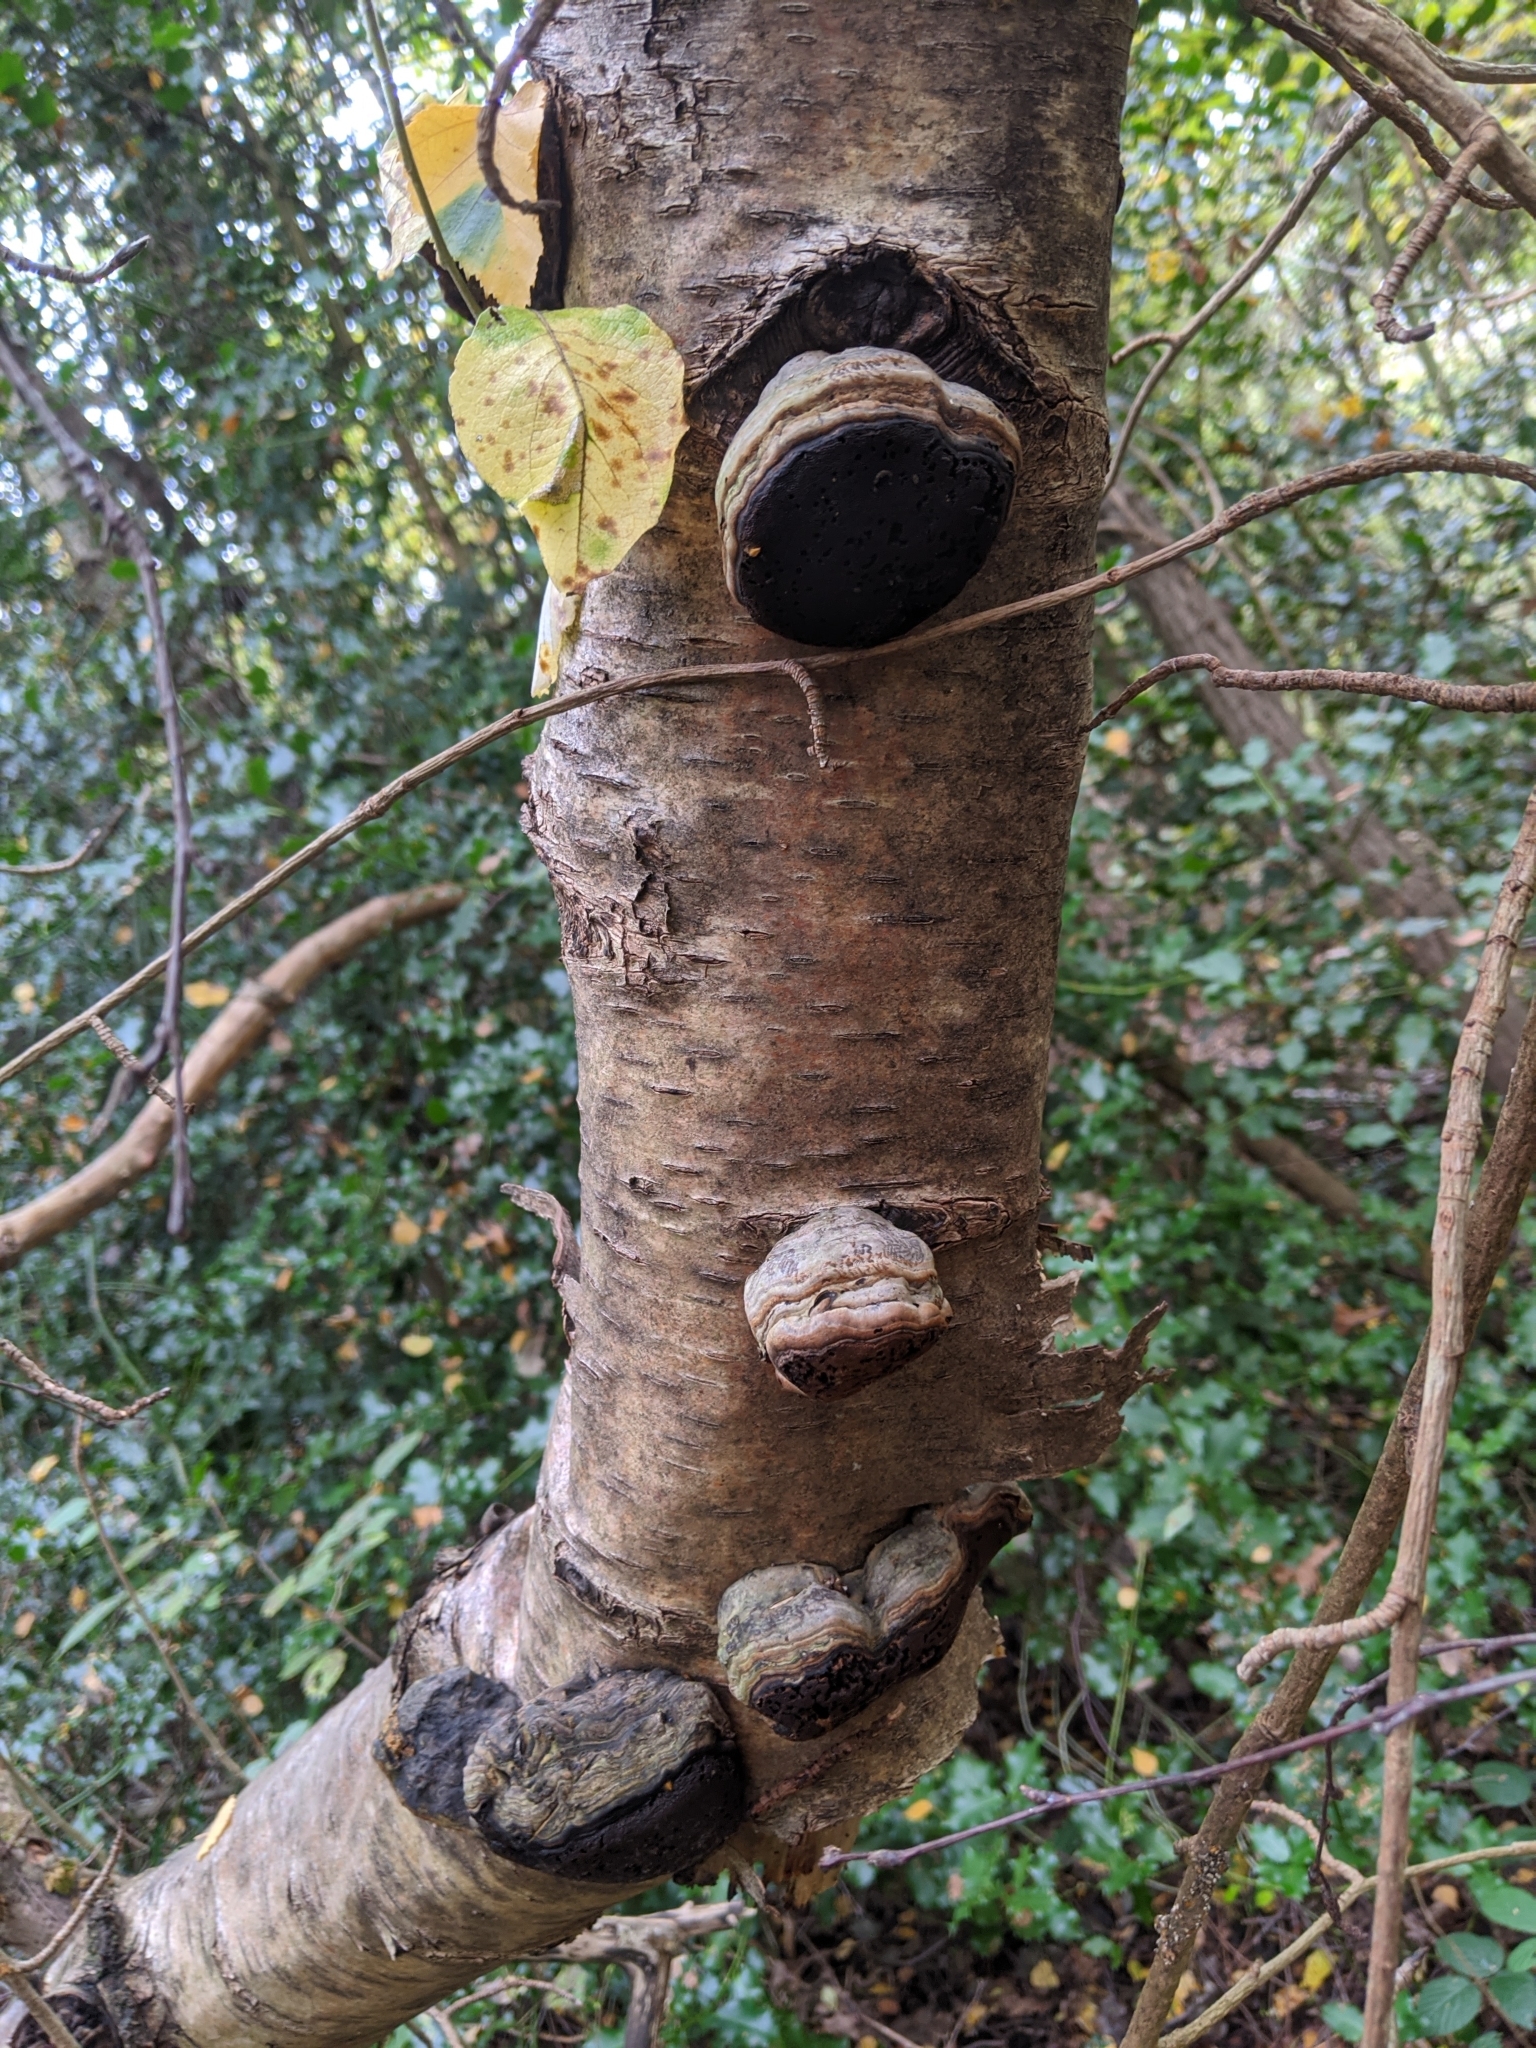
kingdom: Fungi
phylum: Basidiomycota
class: Agaricomycetes
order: Polyporales
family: Polyporaceae
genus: Fomes
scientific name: Fomes fomentarius
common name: Hoof fungus
